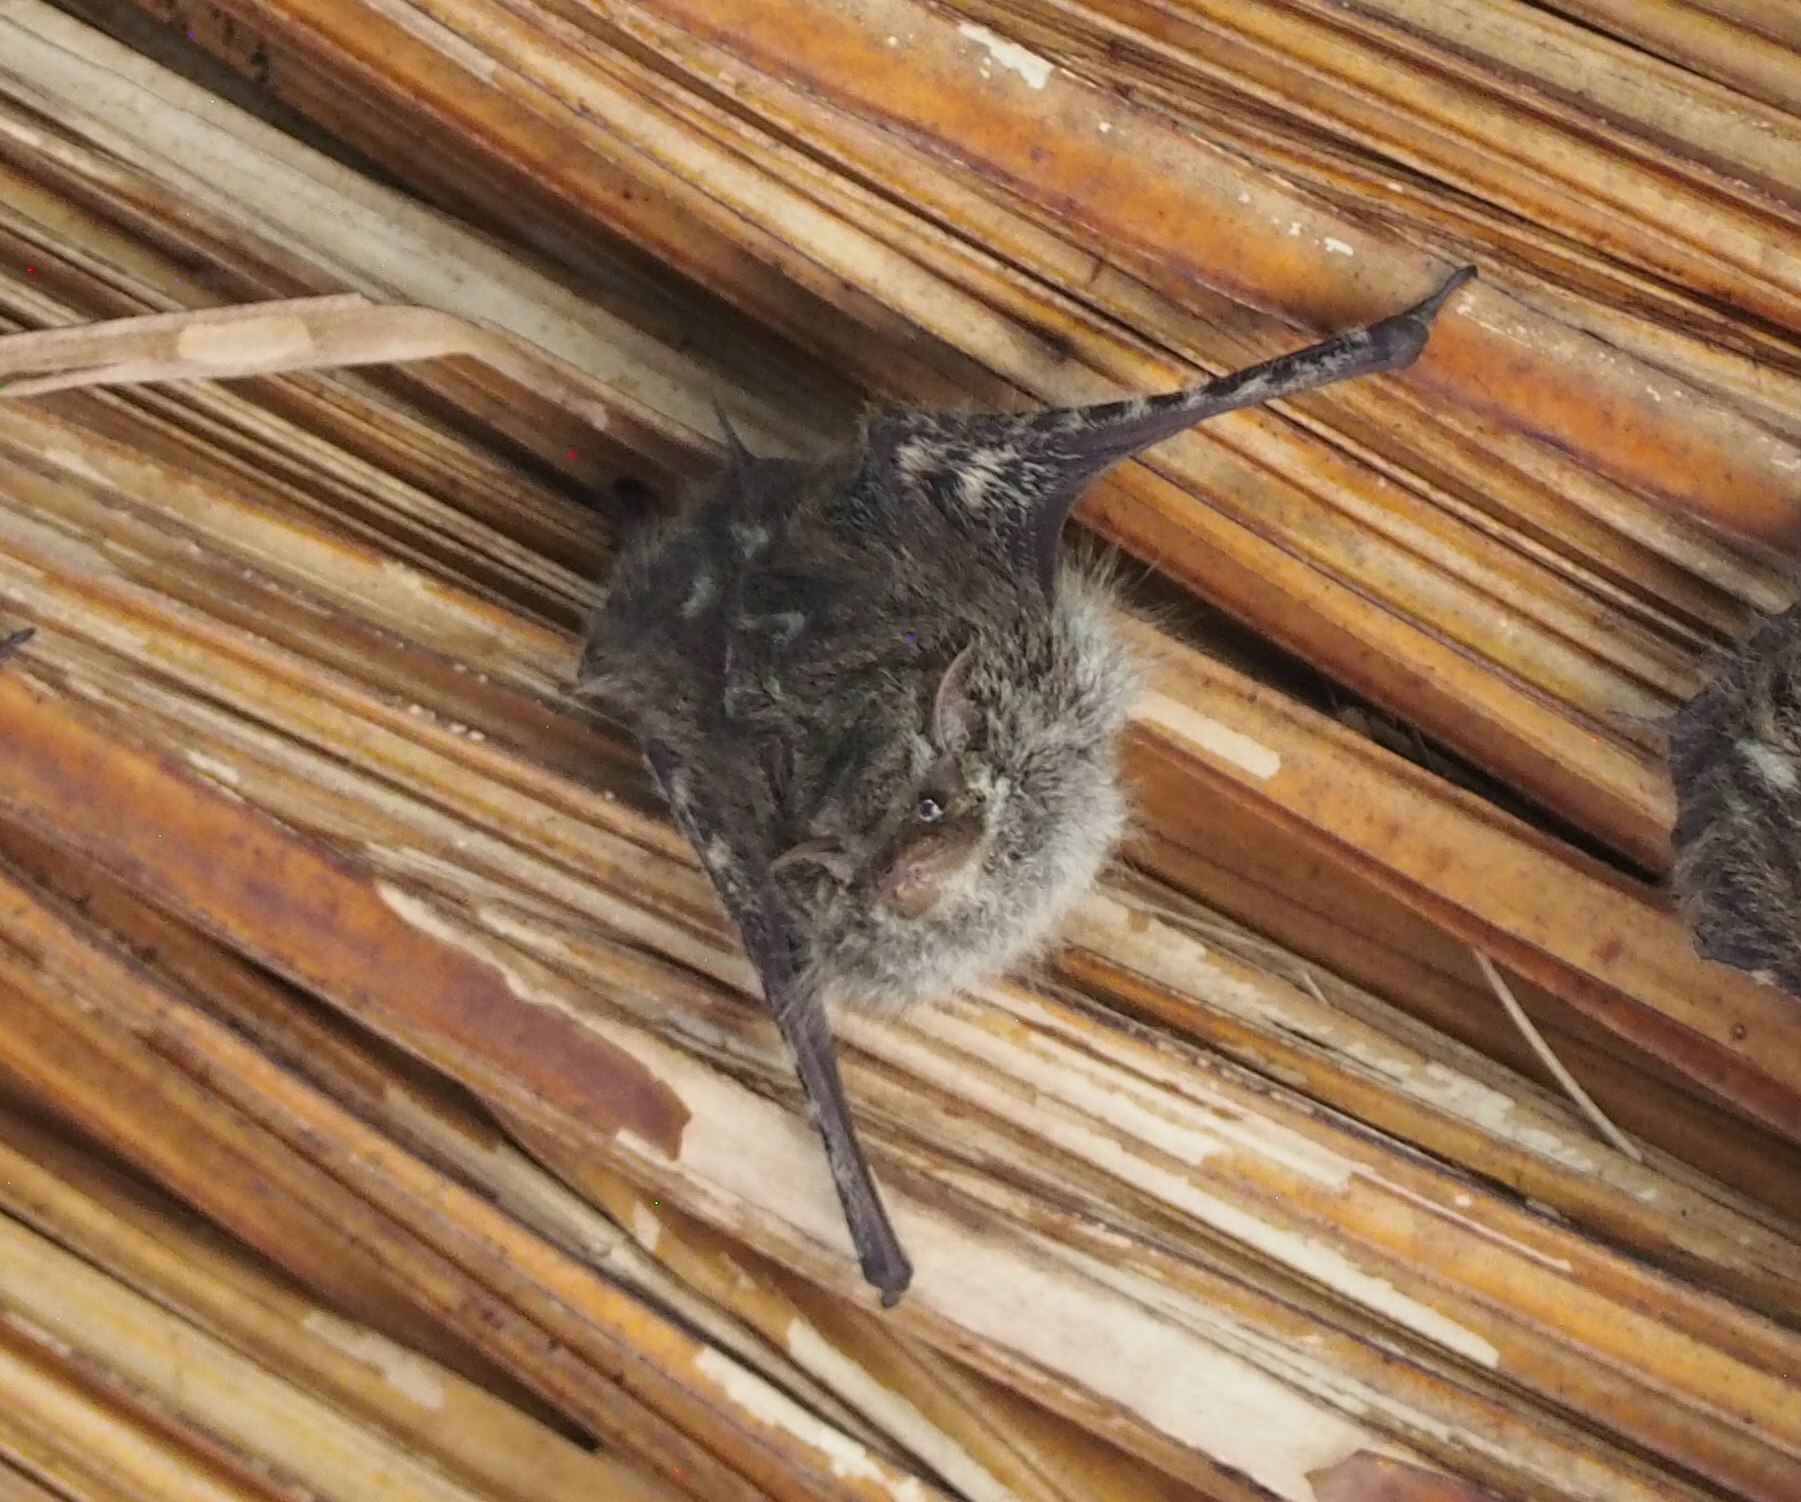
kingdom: Animalia
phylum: Chordata
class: Mammalia
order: Chiroptera
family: Emballonuridae
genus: Rhynchonycteris
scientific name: Rhynchonycteris naso
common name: Proboscis bat
